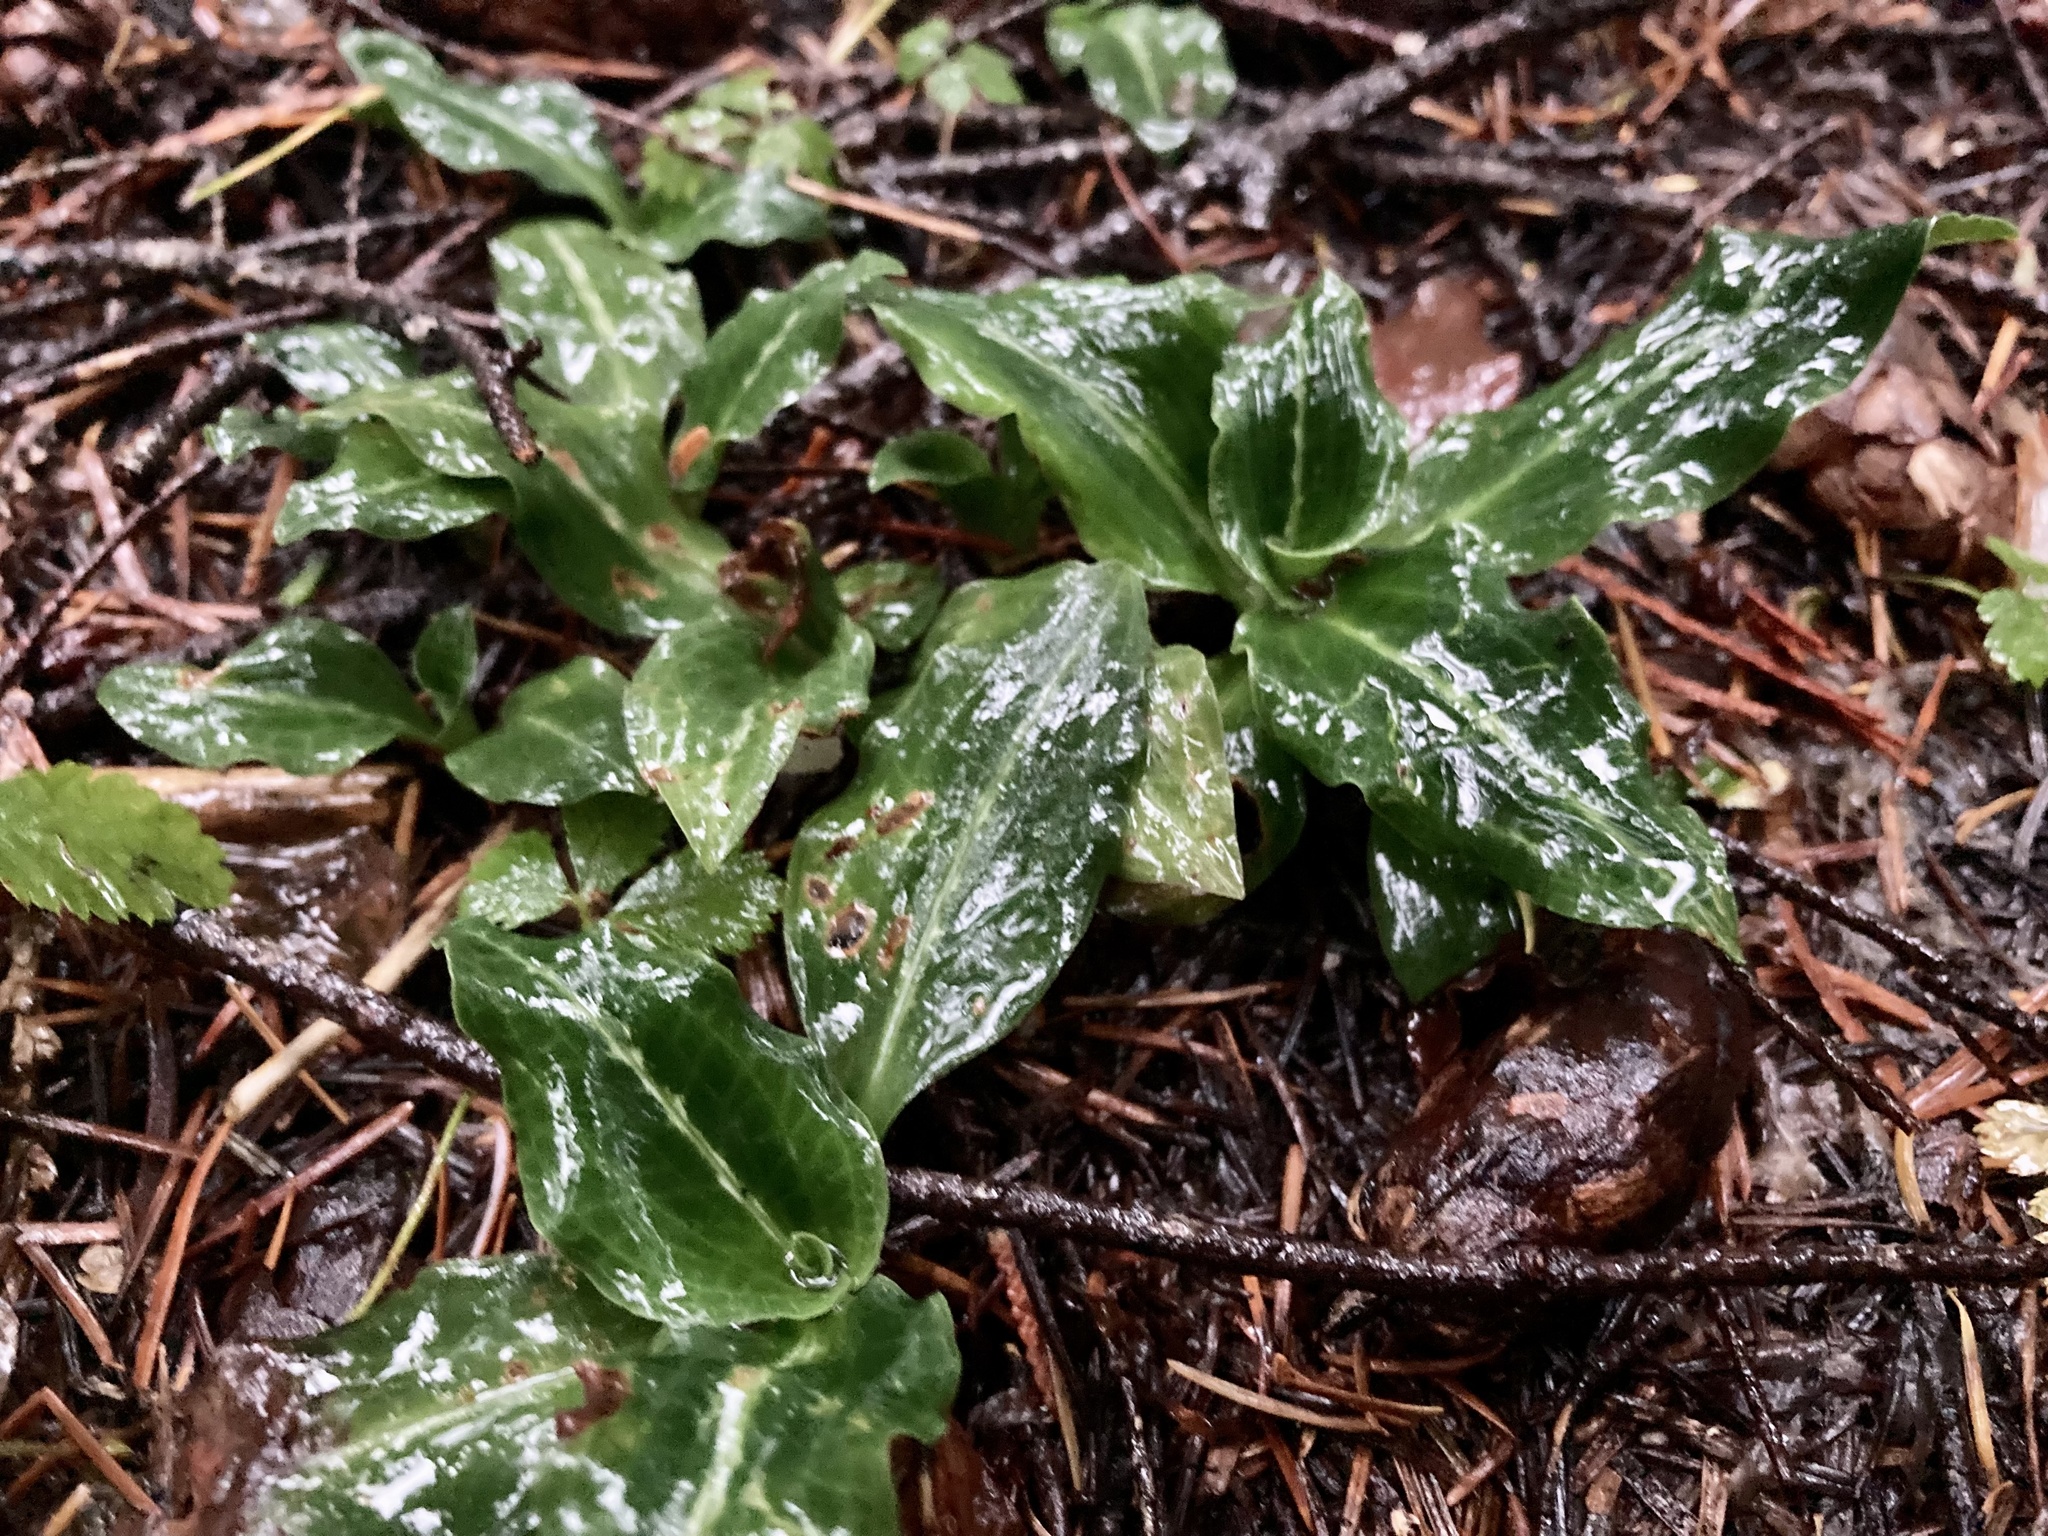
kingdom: Plantae
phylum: Tracheophyta
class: Liliopsida
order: Asparagales
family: Orchidaceae
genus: Goodyera
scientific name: Goodyera oblongifolia
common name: Giant rattlesnake-plantain
